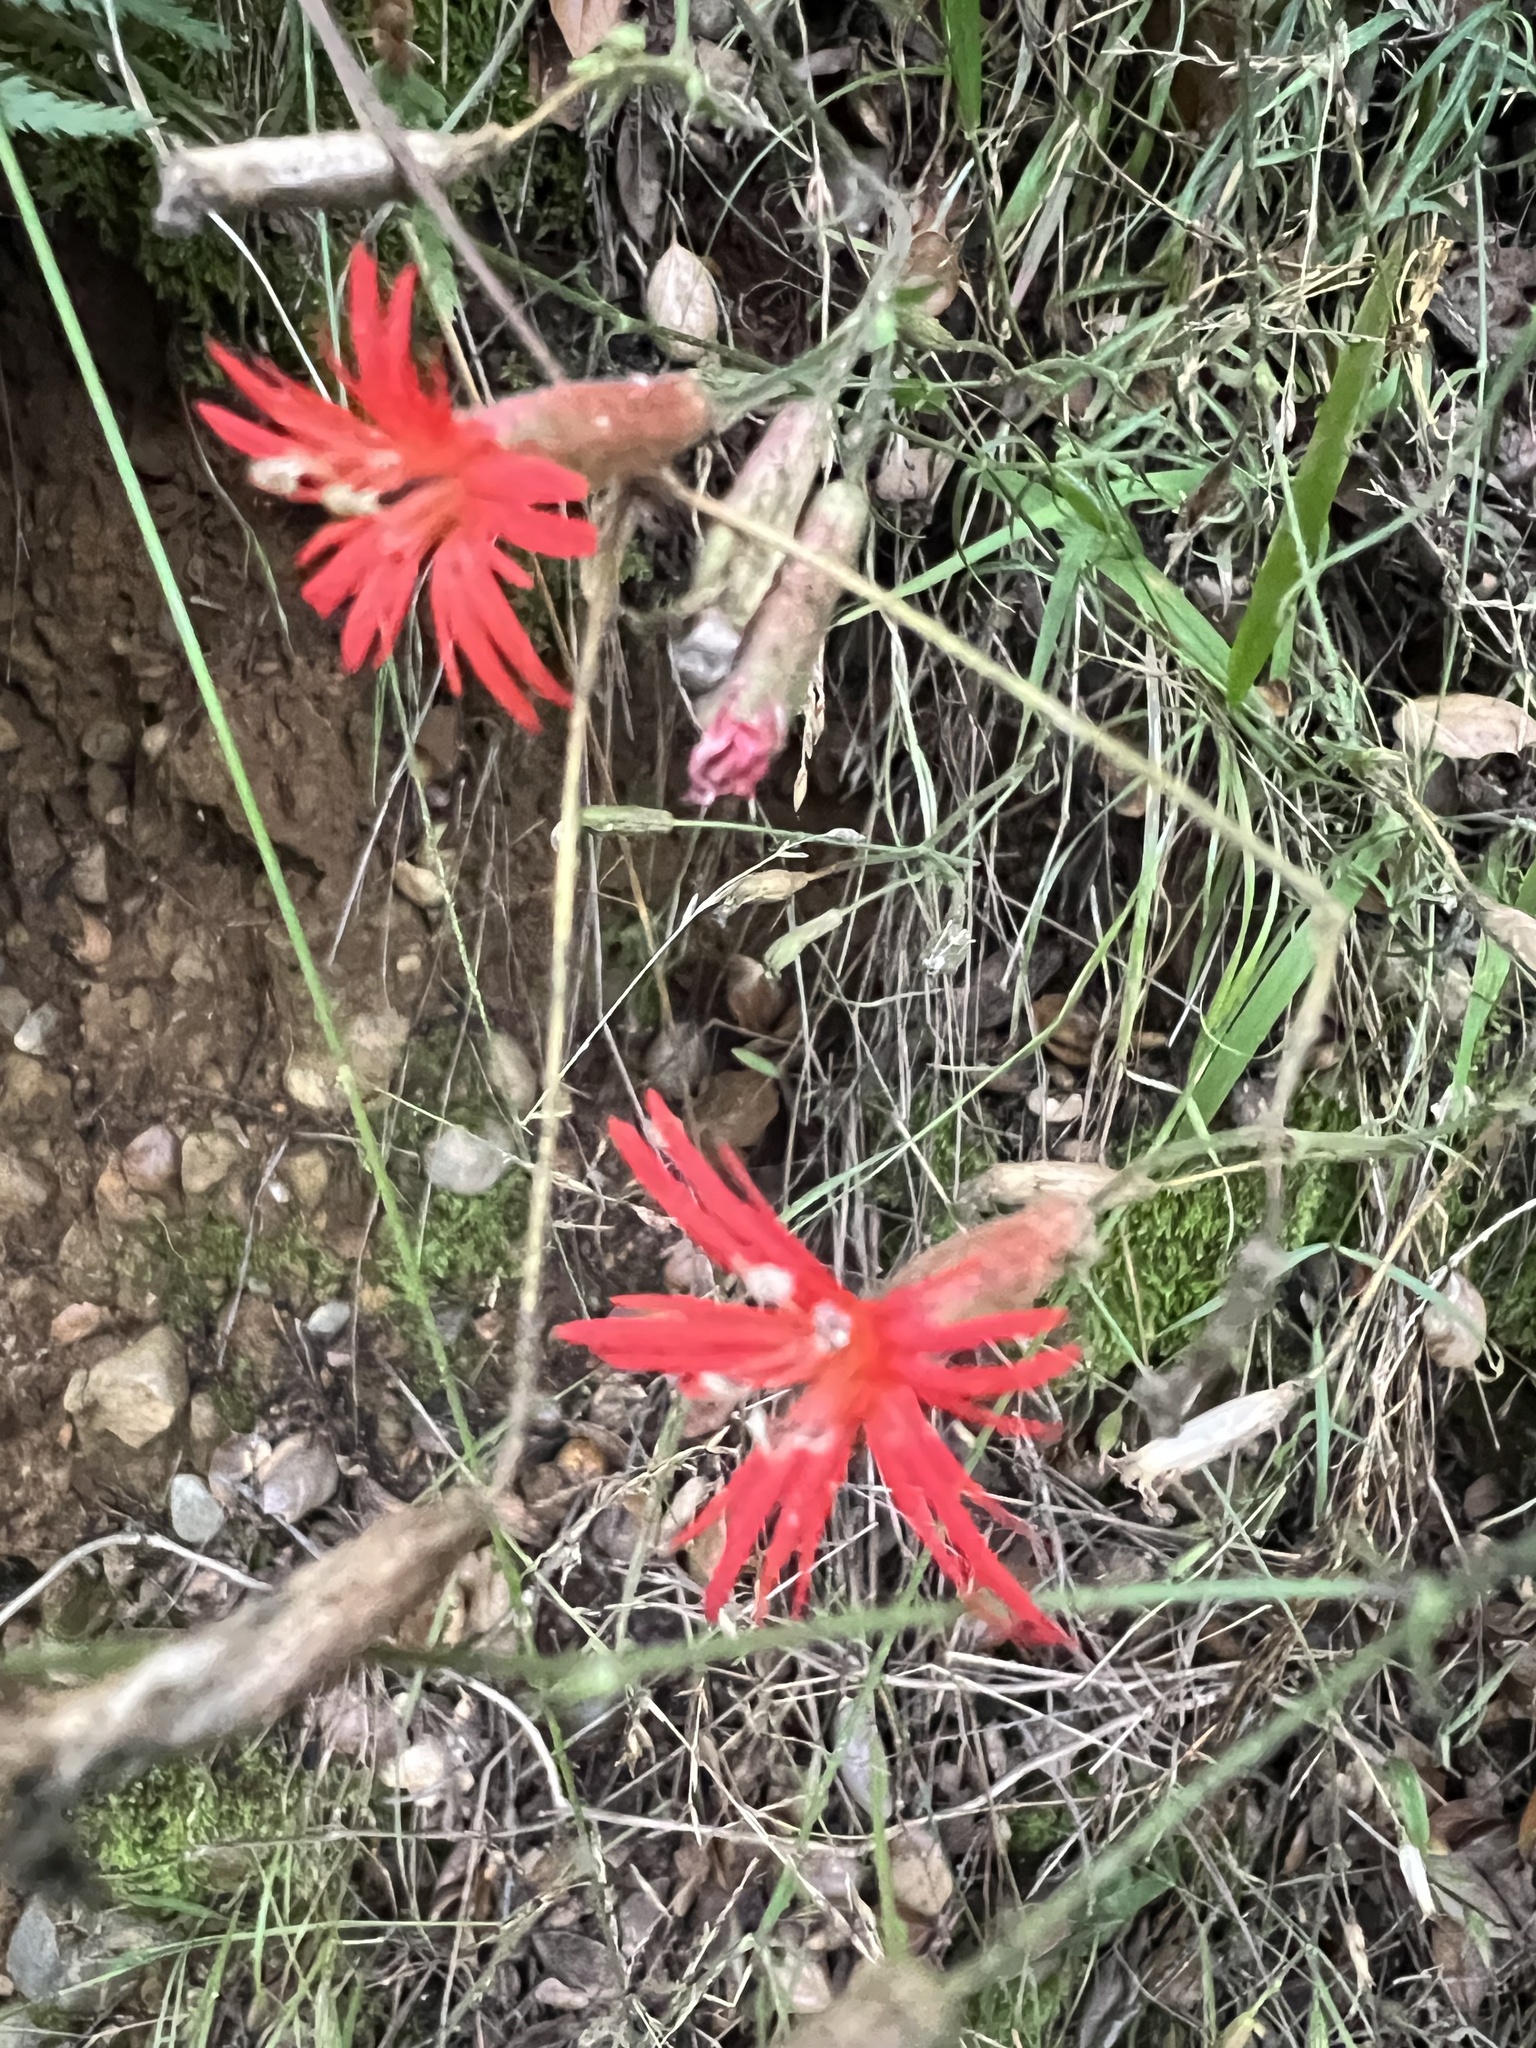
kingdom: Plantae
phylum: Tracheophyta
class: Magnoliopsida
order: Caryophyllales
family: Caryophyllaceae
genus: Silene
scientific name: Silene laciniata
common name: Indian-pink
